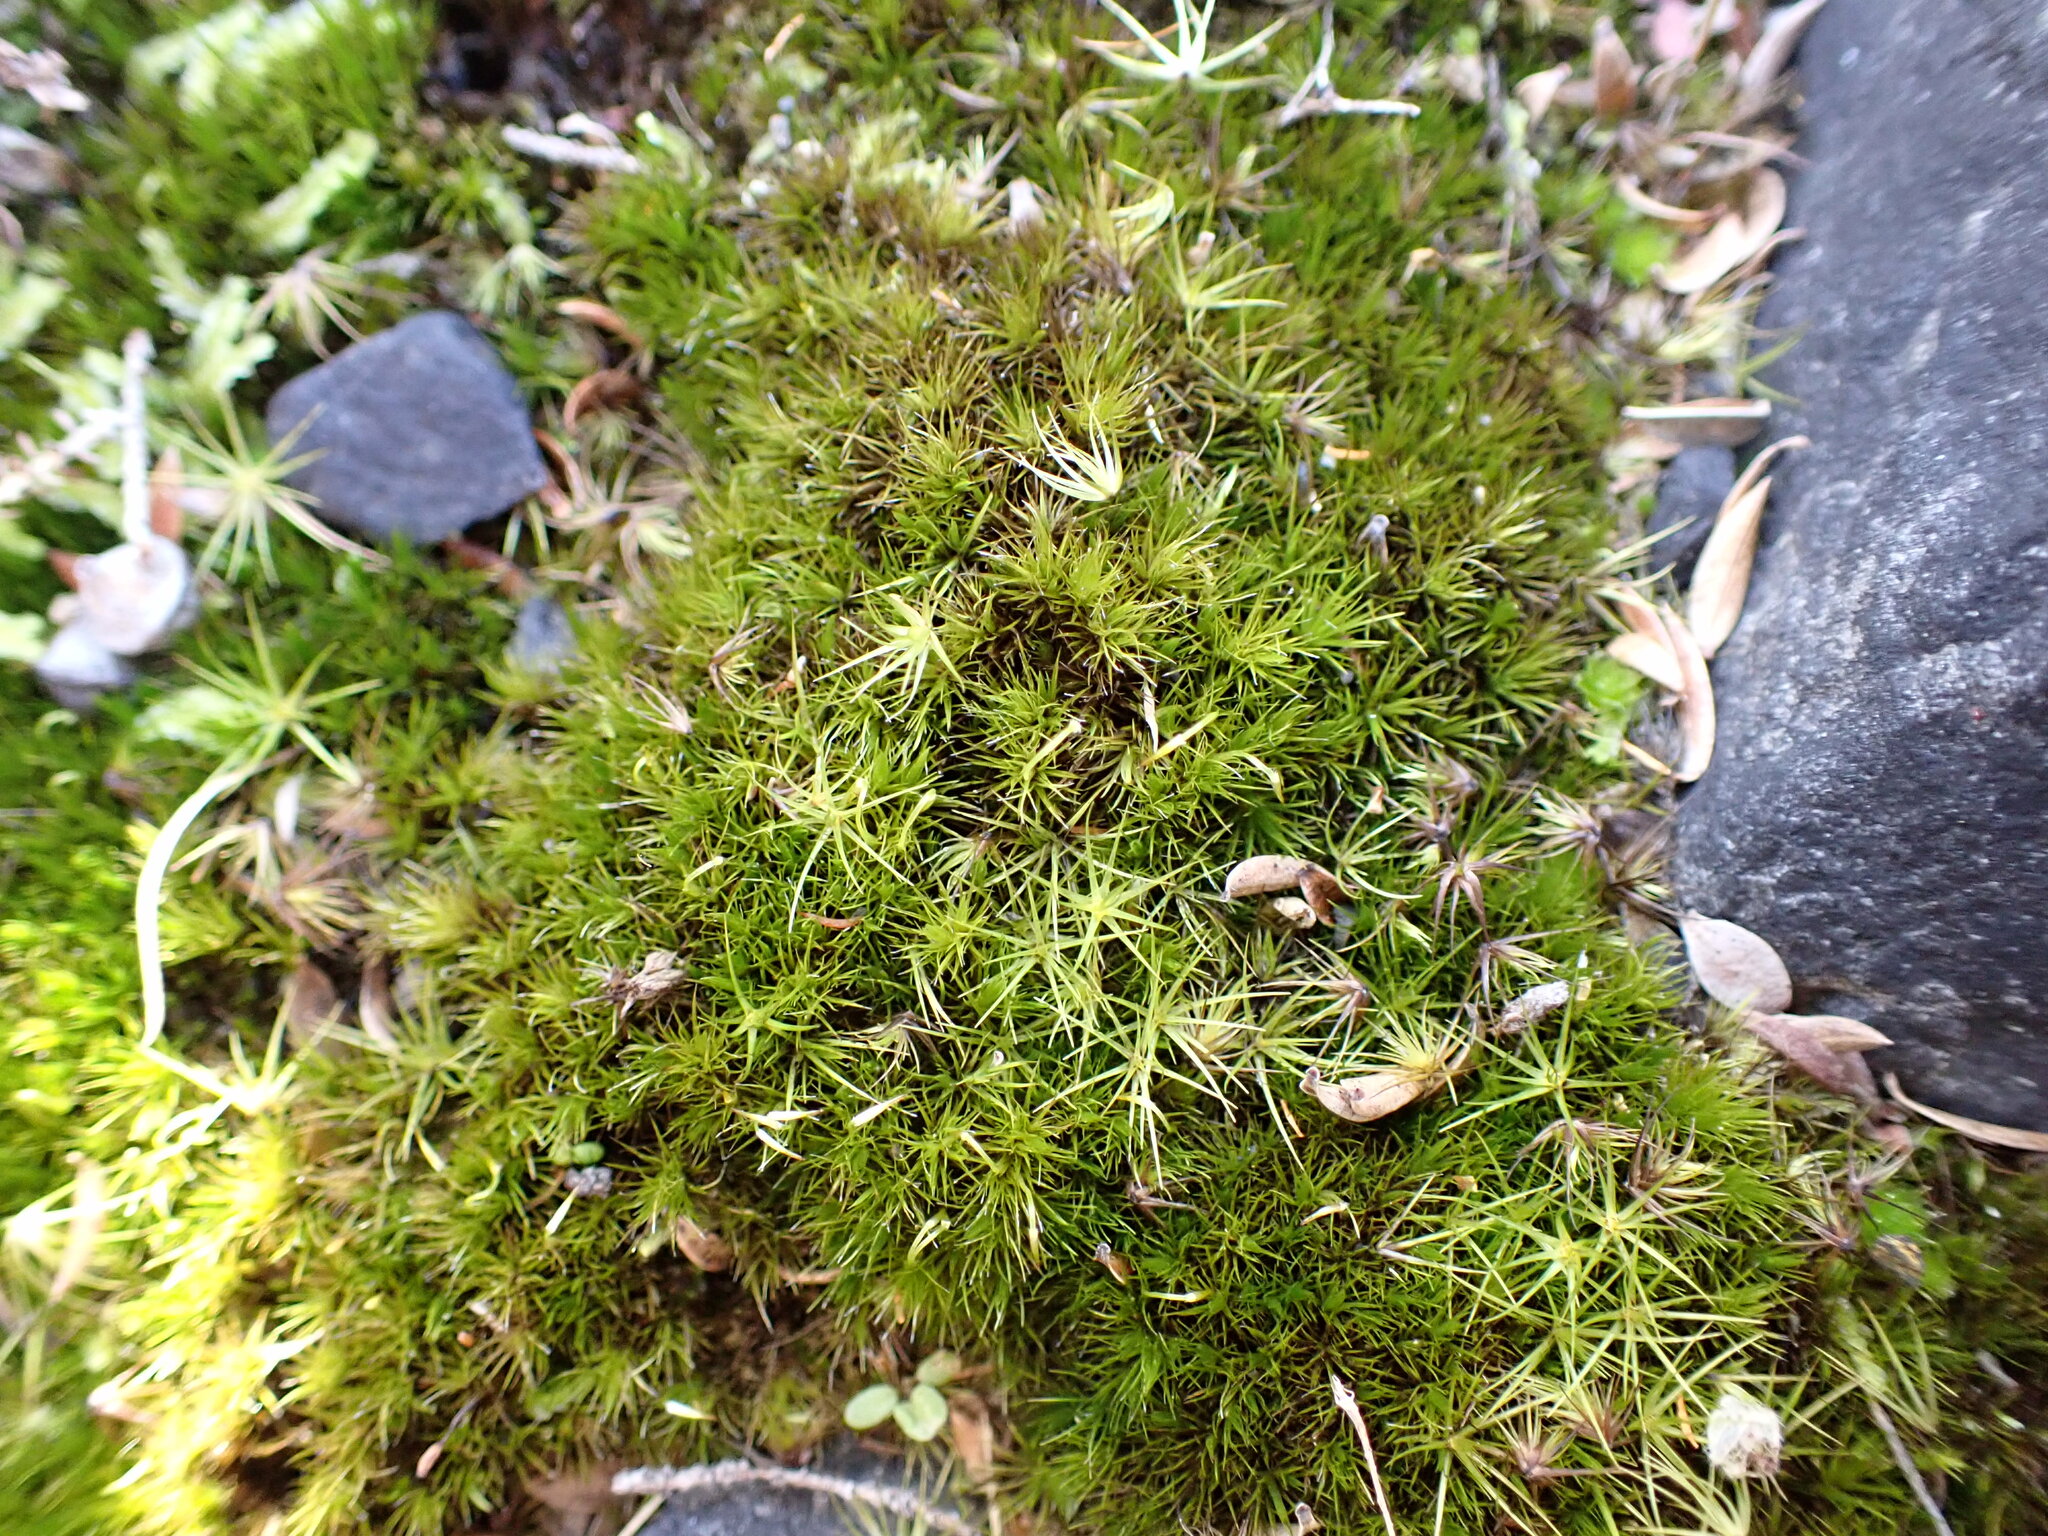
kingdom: Plantae
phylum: Bryophyta
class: Bryopsida
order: Dicranales
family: Leucobryaceae
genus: Campylopus
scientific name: Campylopus clavatus
